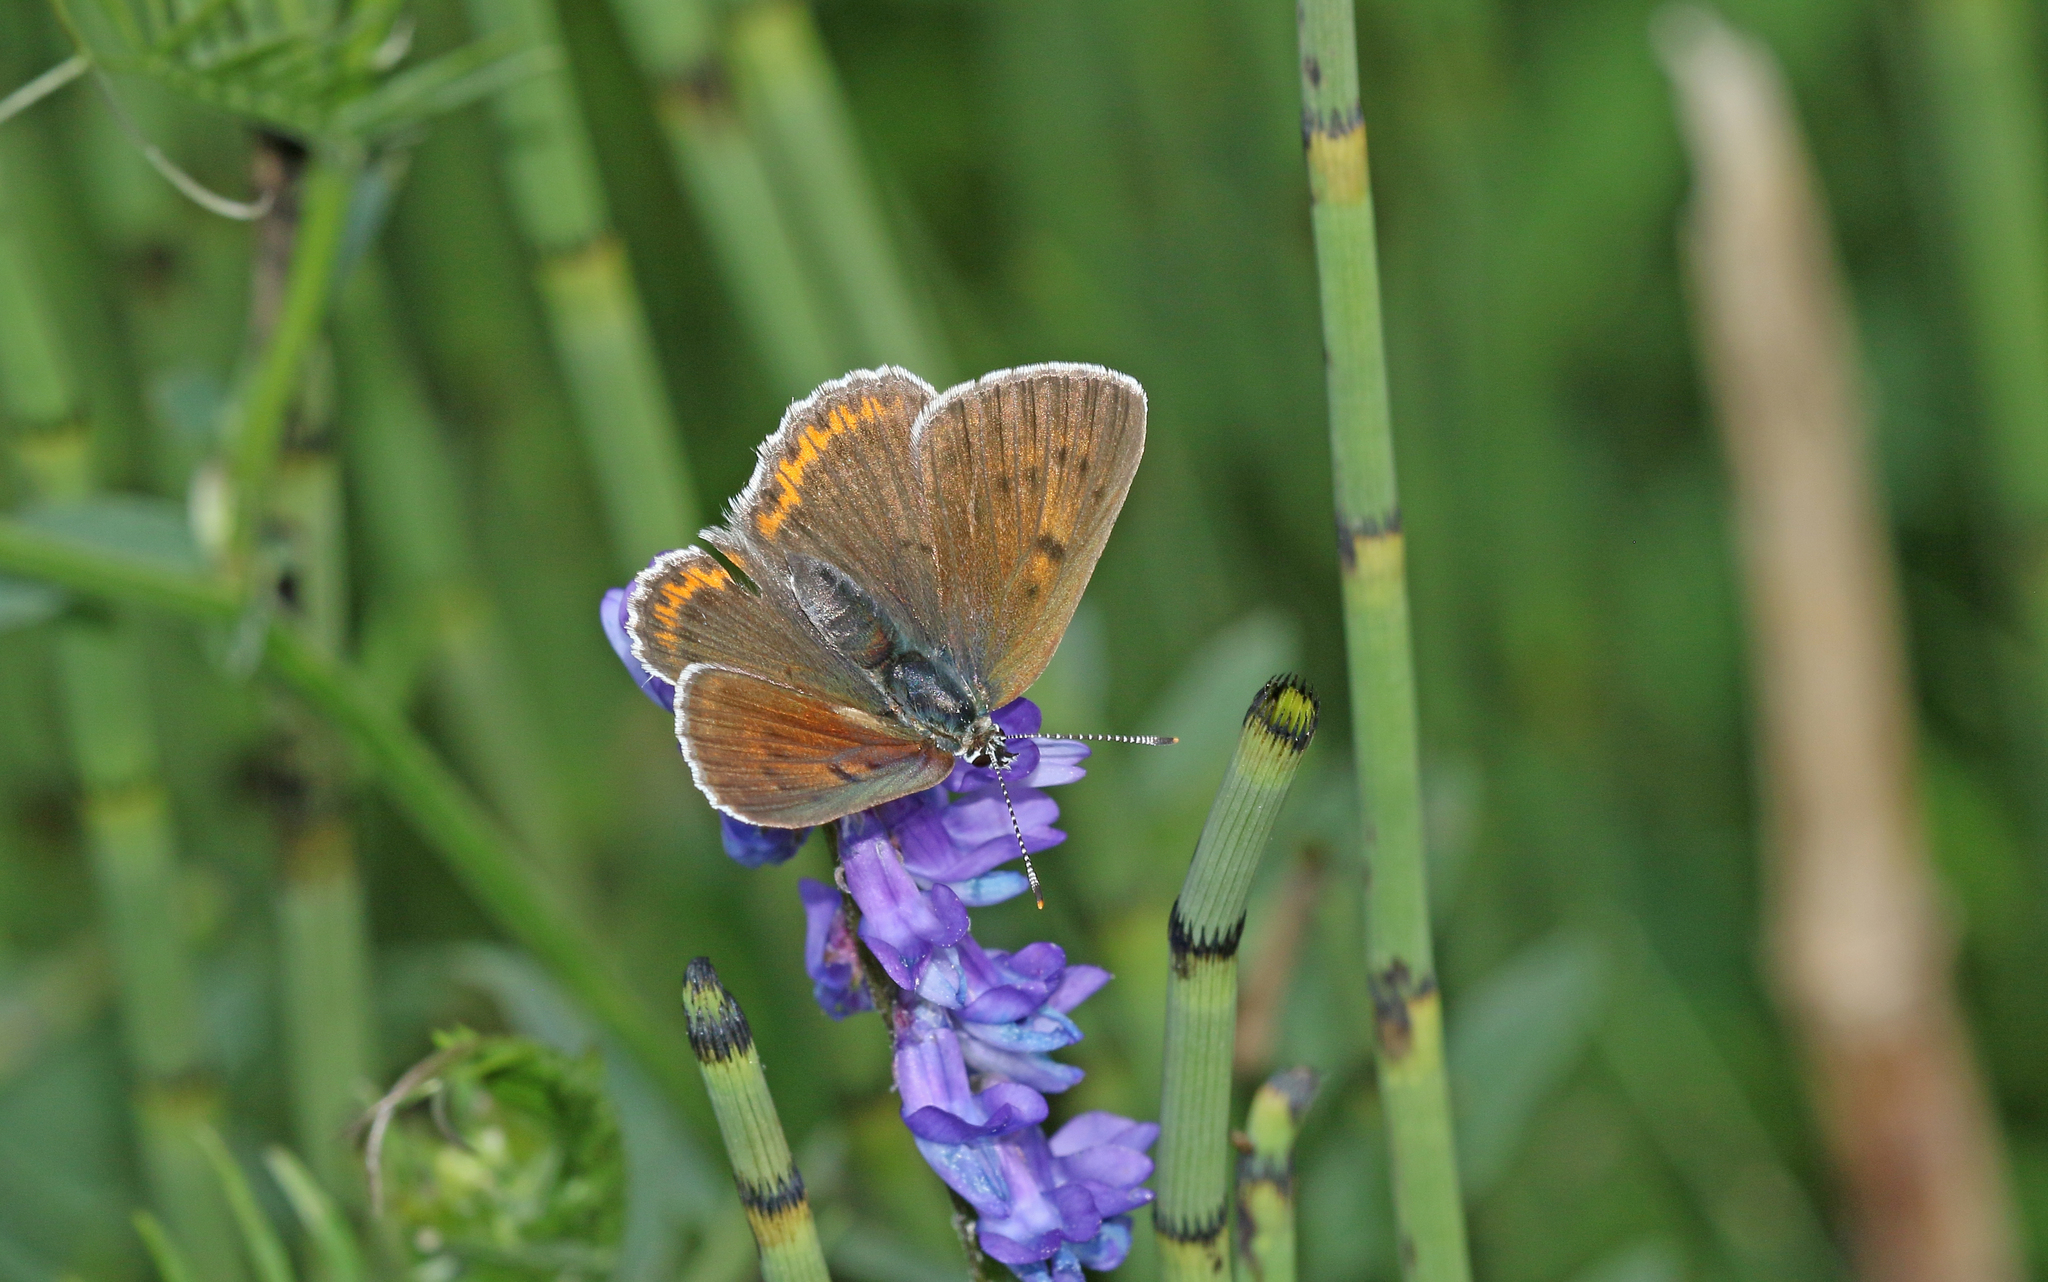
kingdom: Animalia
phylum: Arthropoda
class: Insecta
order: Lepidoptera
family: Lycaenidae
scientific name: Lycaenidae
